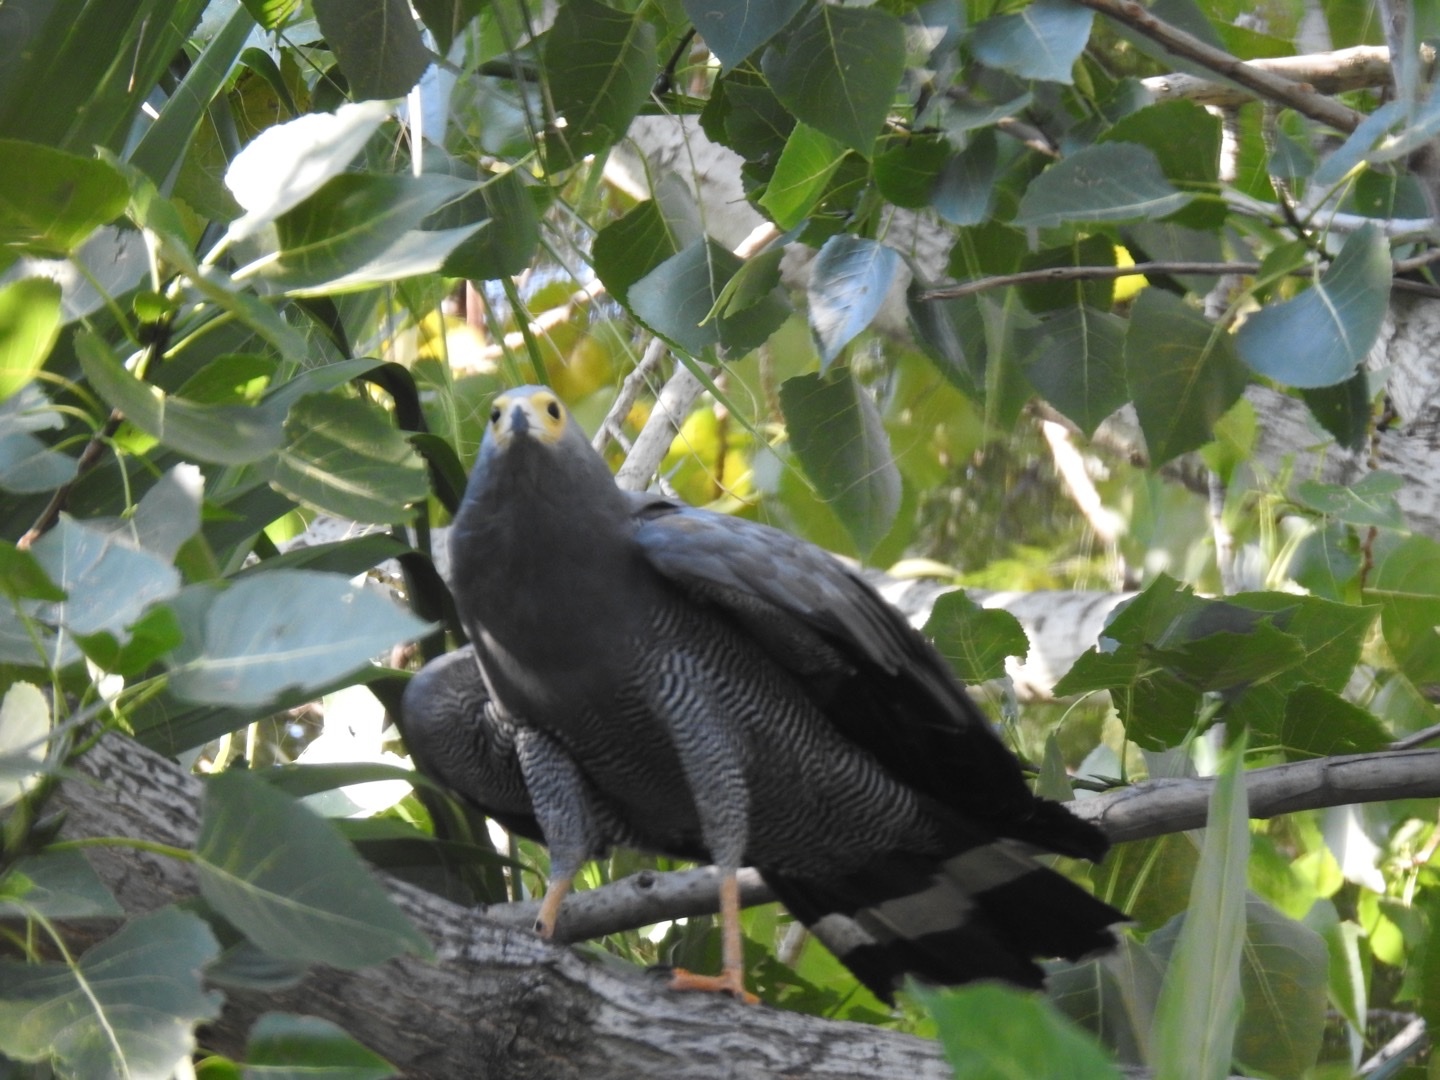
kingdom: Animalia
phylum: Chordata
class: Aves
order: Accipitriformes
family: Accipitridae
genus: Polyboroides
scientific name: Polyboroides typus
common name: African harrier-hawk
